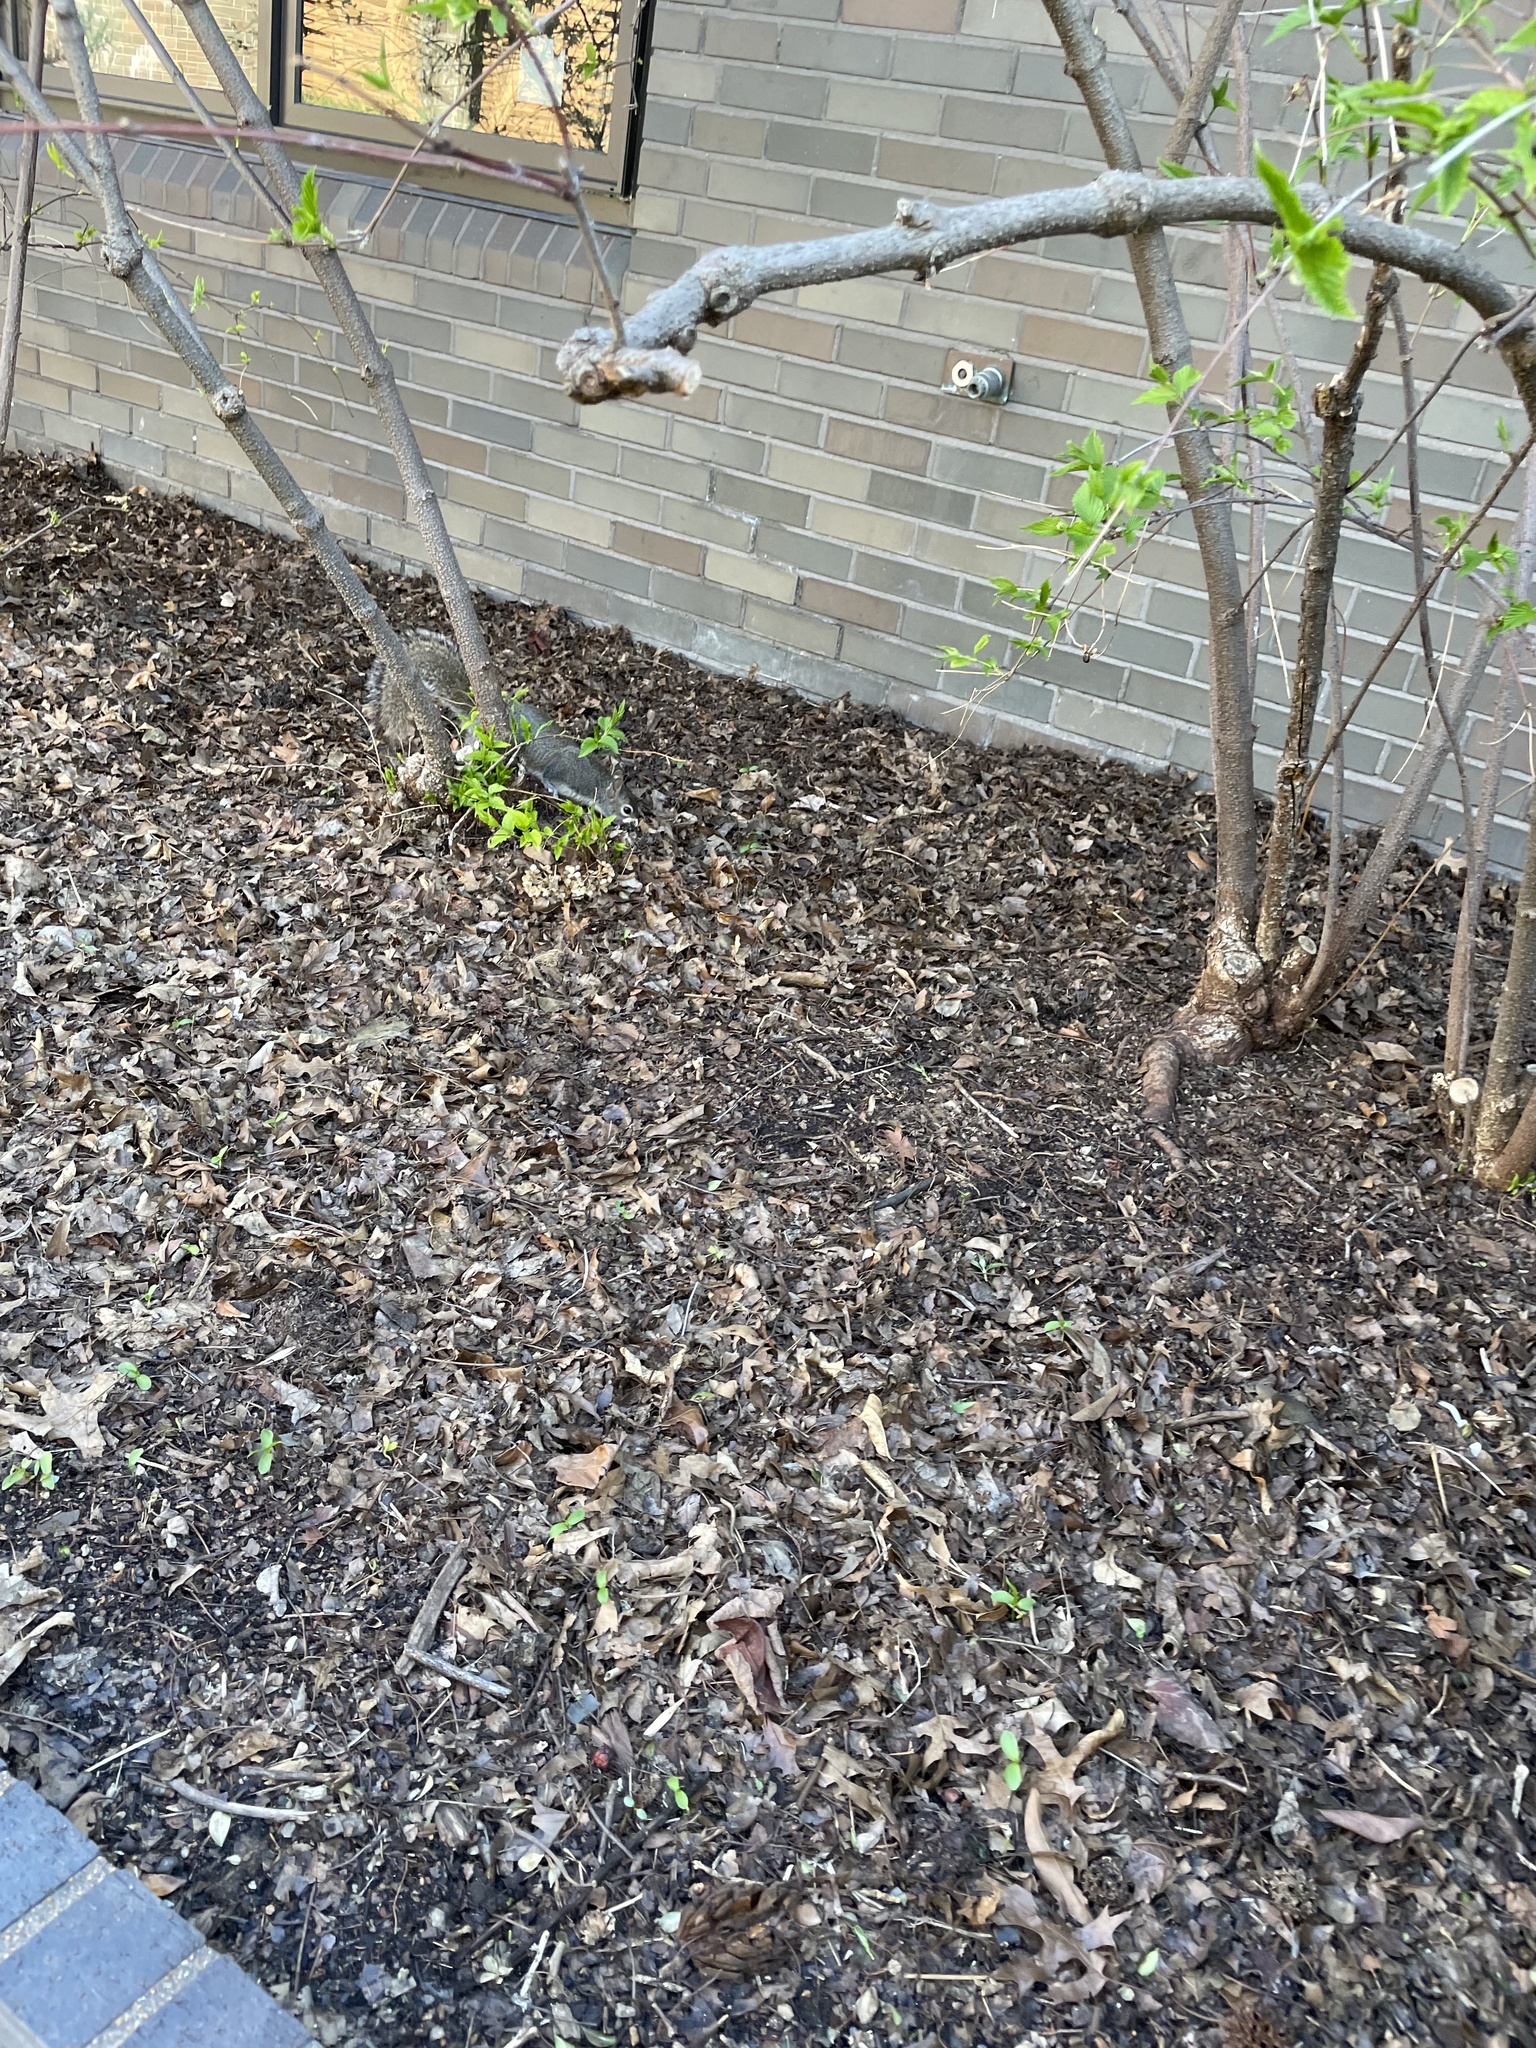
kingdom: Animalia
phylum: Chordata
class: Mammalia
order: Rodentia
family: Sciuridae
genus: Sciurus
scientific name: Sciurus carolinensis
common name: Eastern gray squirrel
